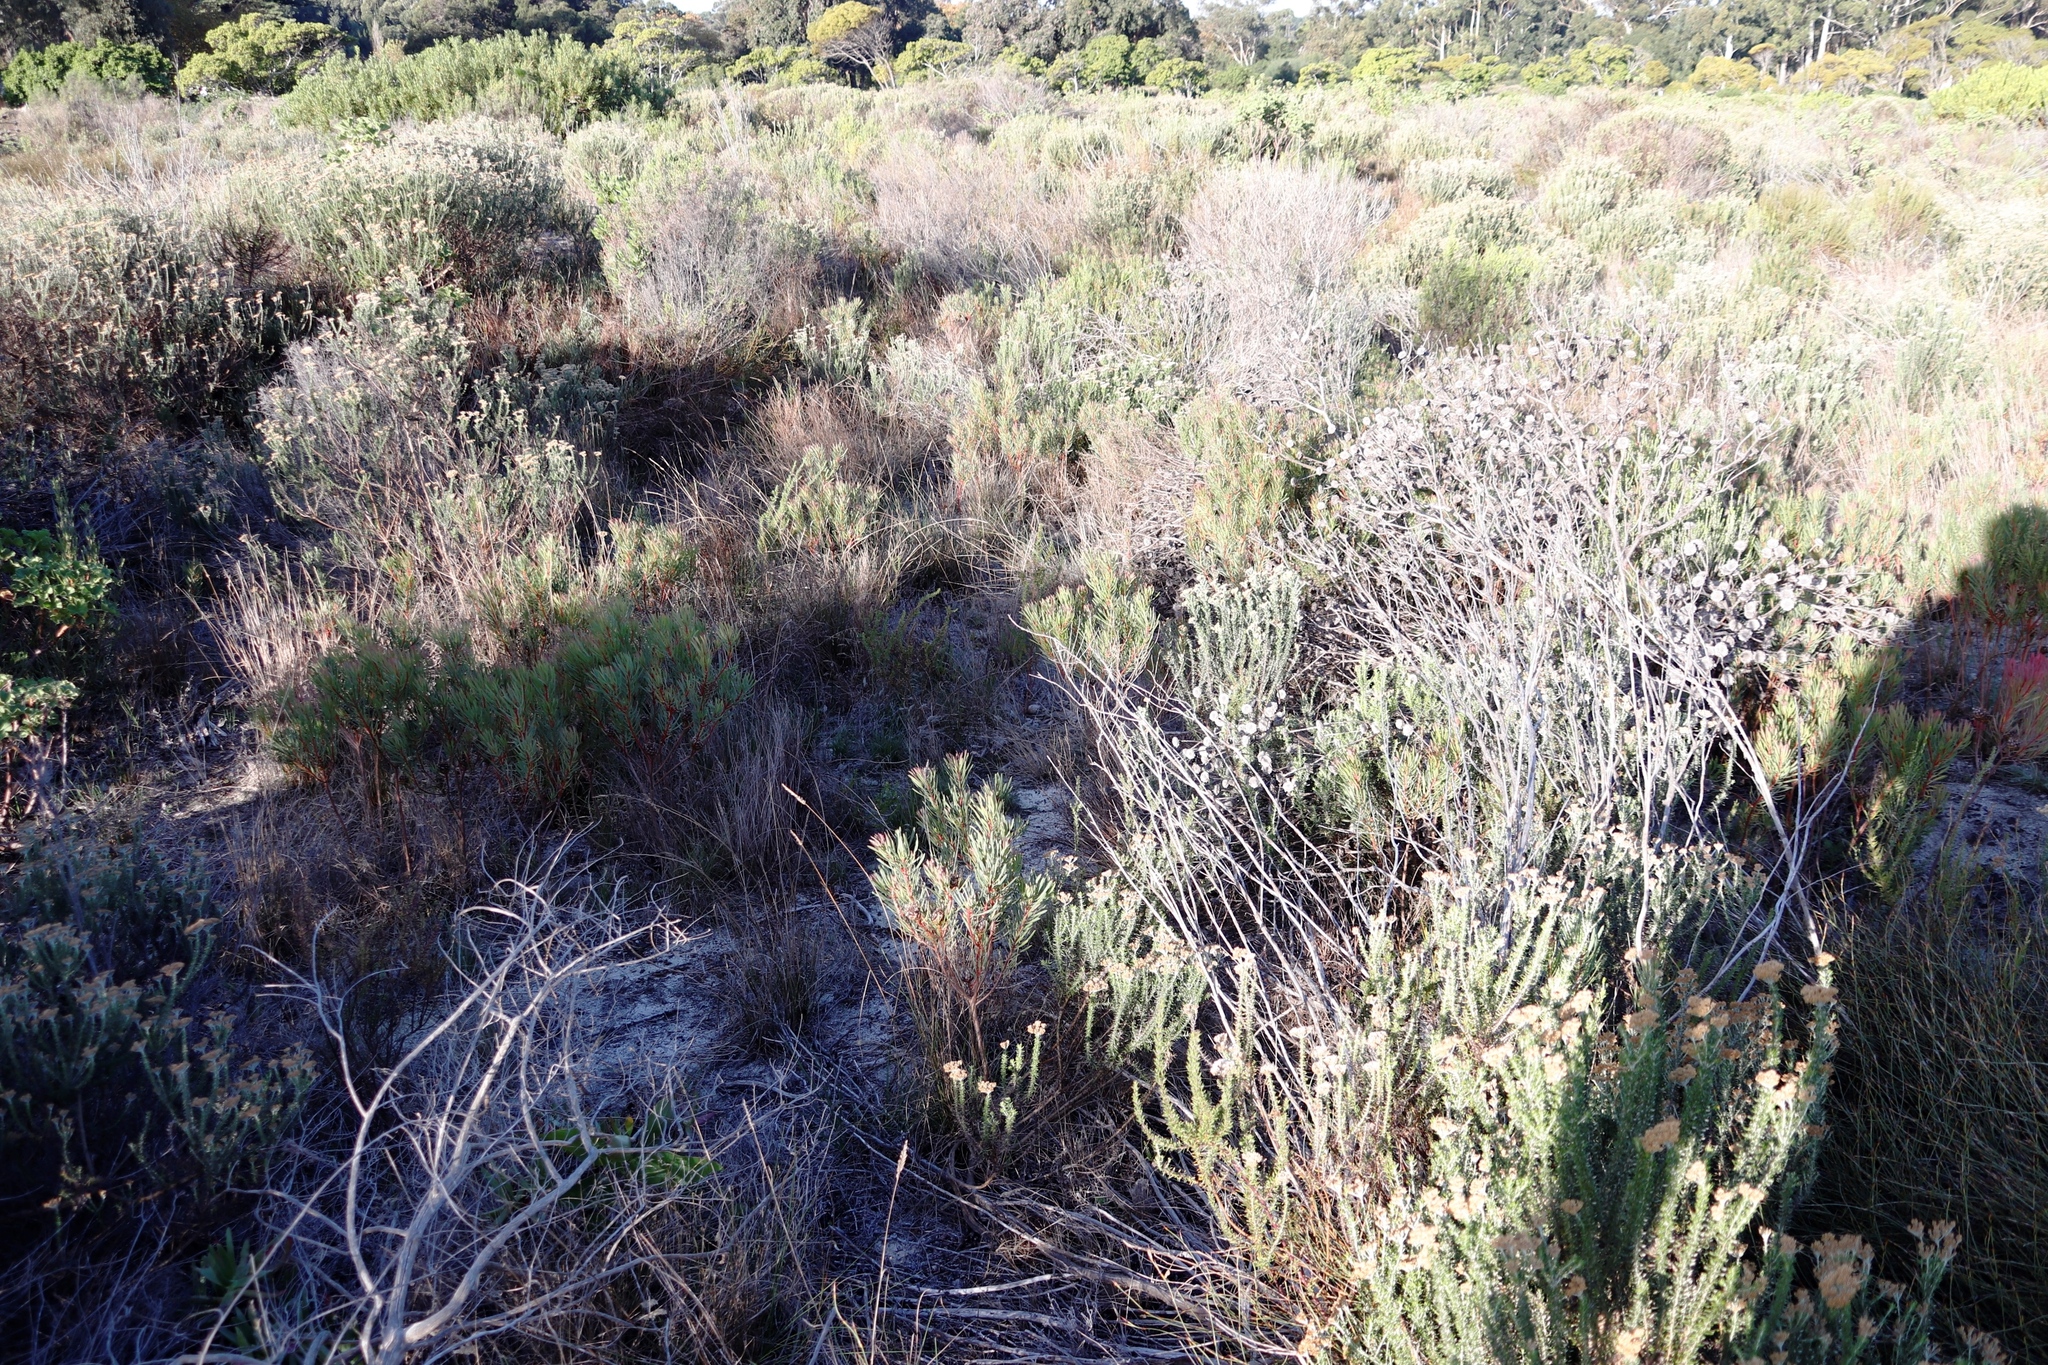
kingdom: Plantae
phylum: Tracheophyta
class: Magnoliopsida
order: Proteales
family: Proteaceae
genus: Protea
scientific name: Protea scolymocephala
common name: Thistle sugarbush
